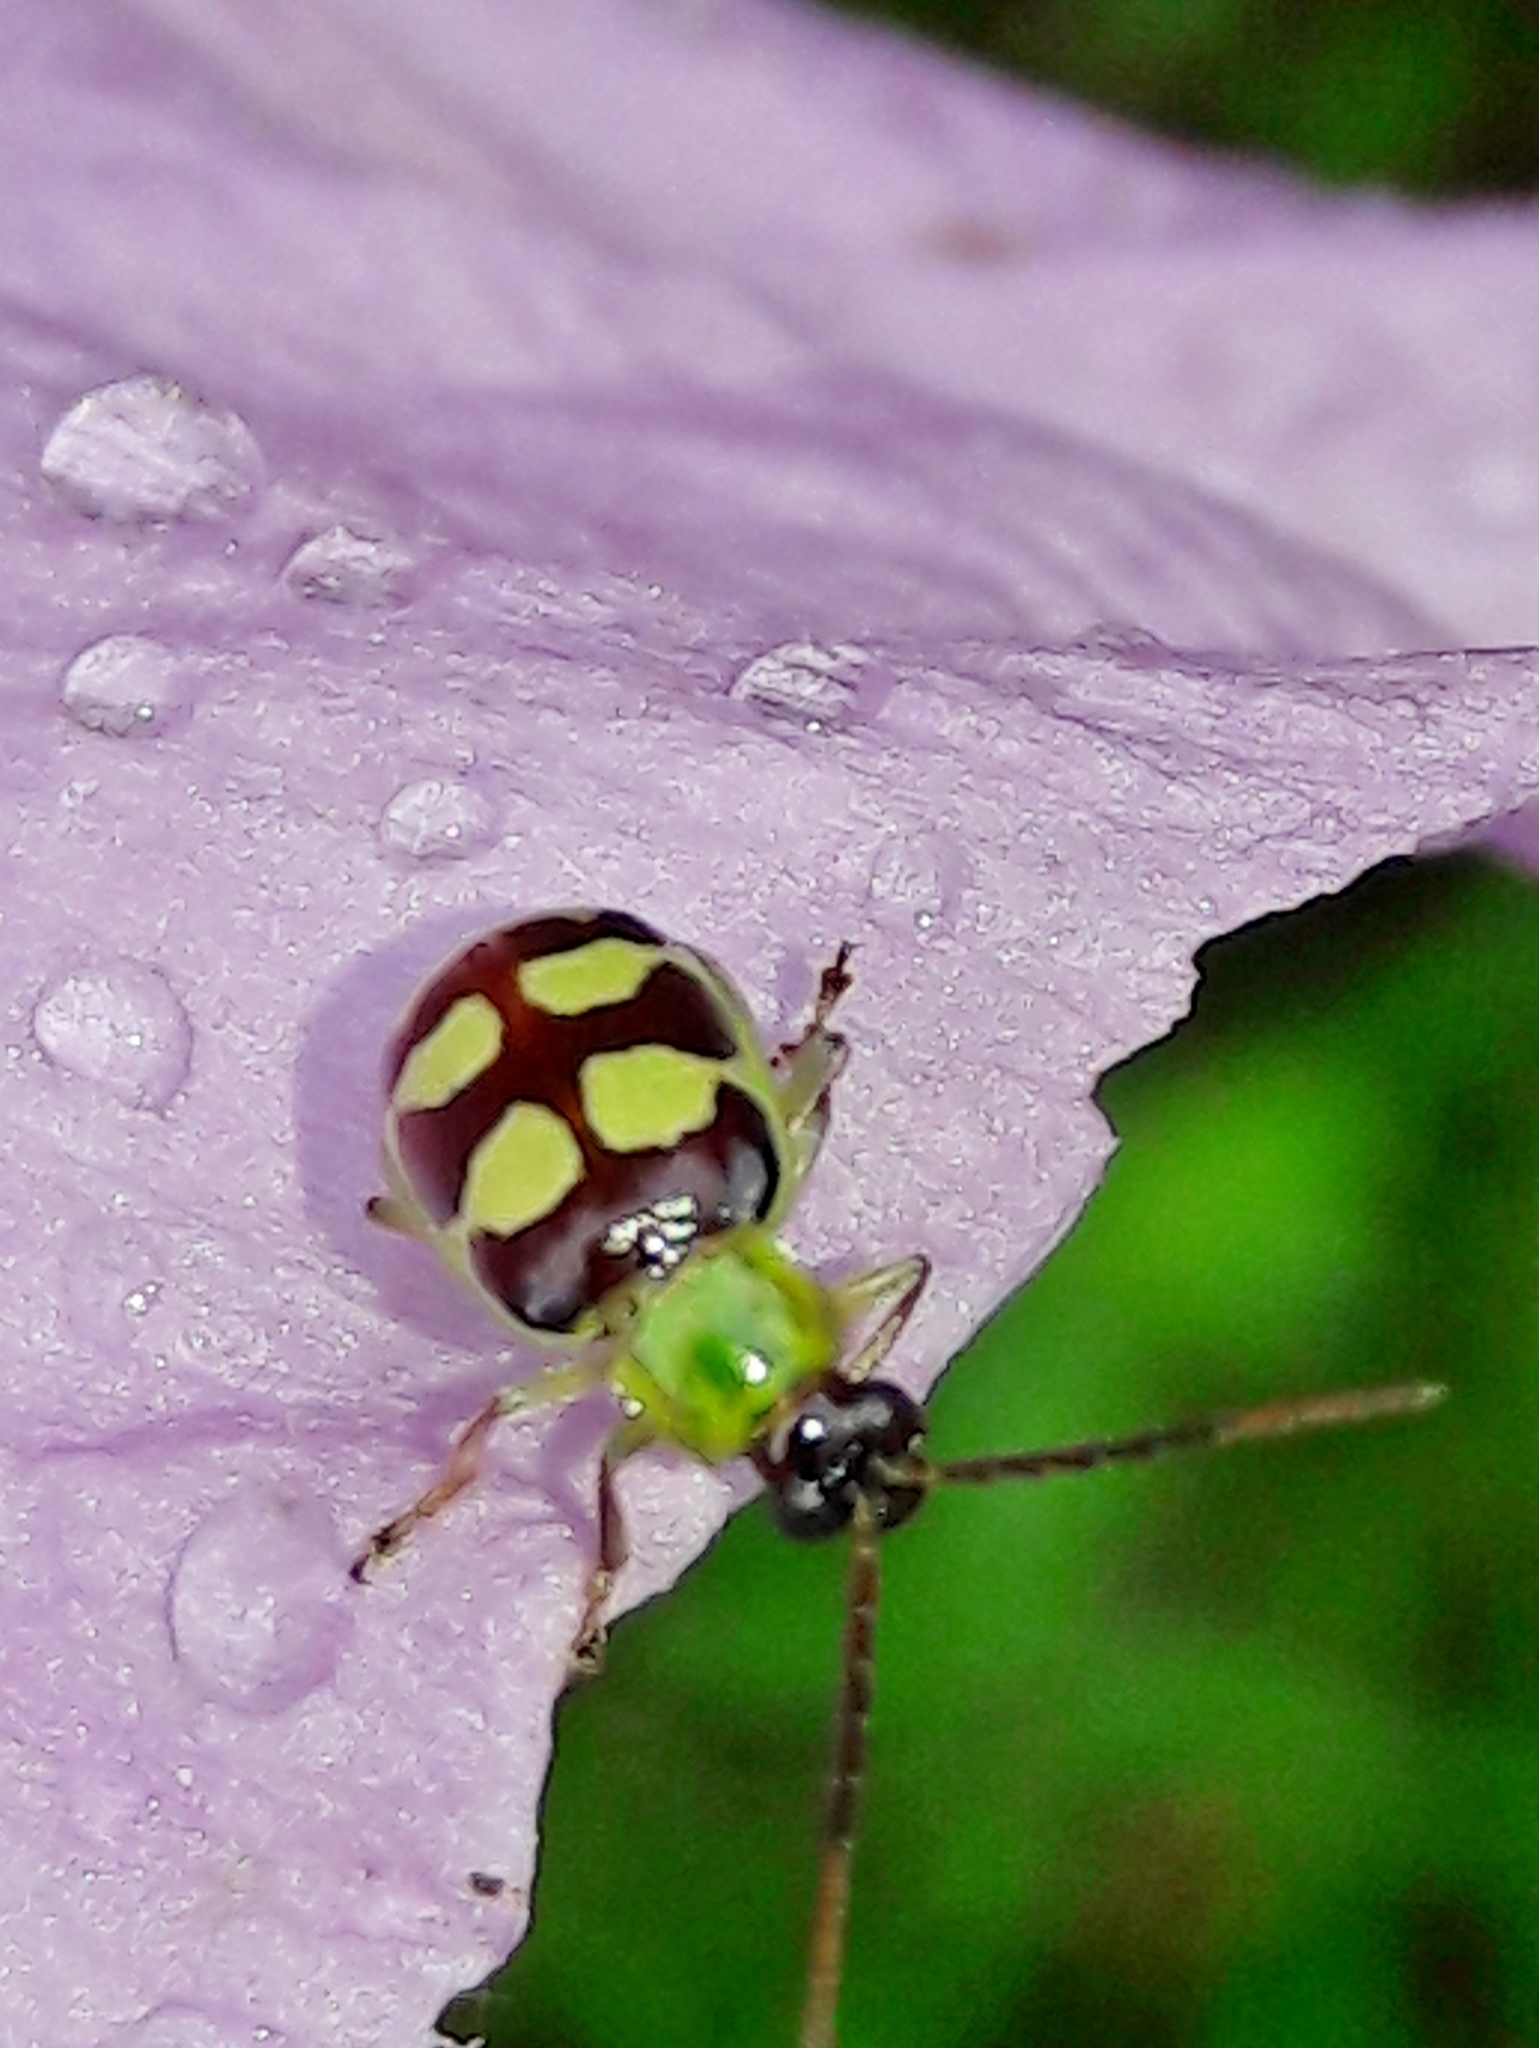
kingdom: Animalia
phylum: Arthropoda
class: Insecta
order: Coleoptera
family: Chrysomelidae
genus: Basiprionota
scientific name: Basiprionota sinuata
